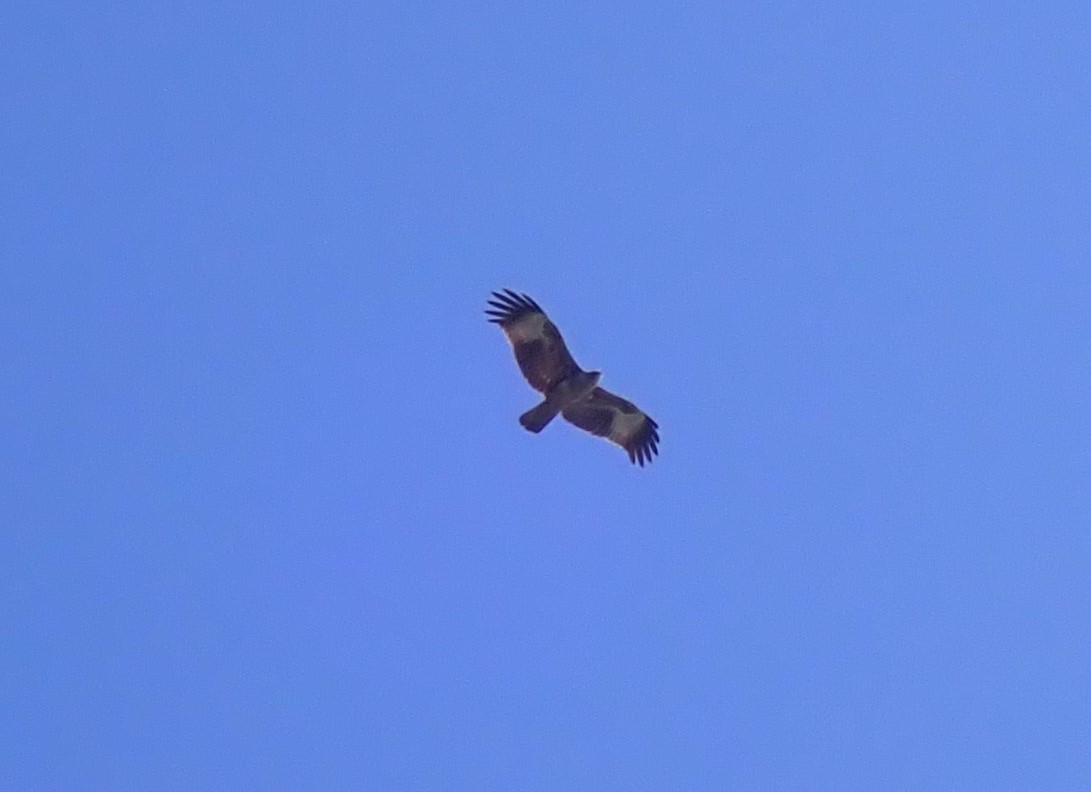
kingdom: Animalia
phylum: Chordata
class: Aves
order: Accipitriformes
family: Accipitridae
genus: Haliastur
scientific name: Haliastur indus
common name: Brahminy kite
